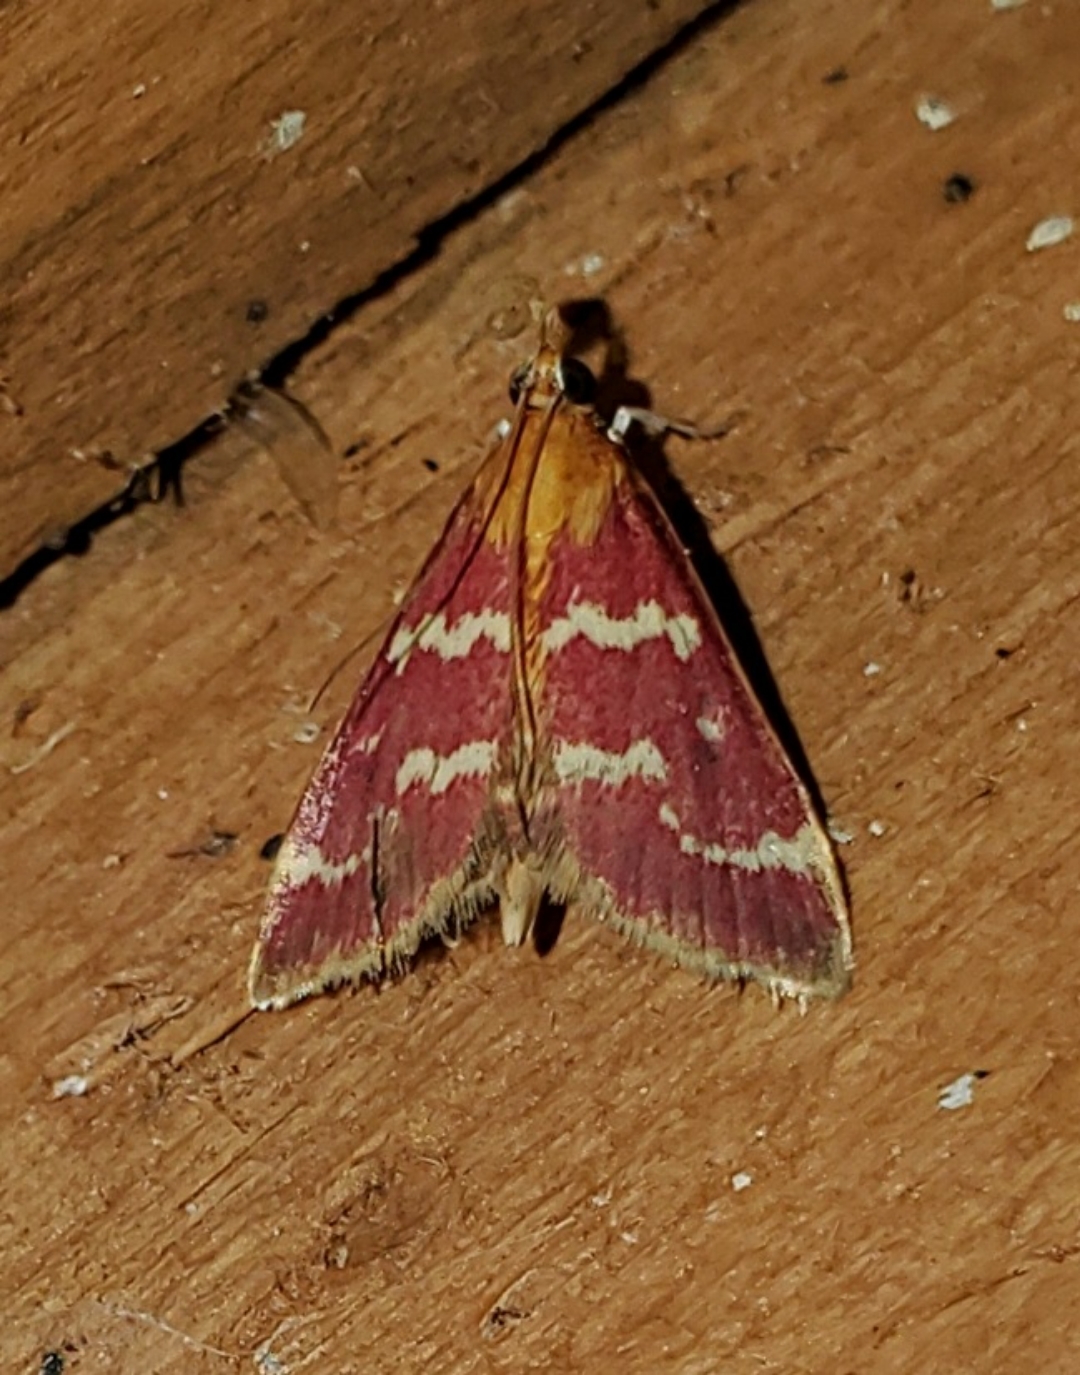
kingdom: Animalia
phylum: Arthropoda
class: Insecta
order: Lepidoptera
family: Crambidae
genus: Pyrausta
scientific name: Pyrausta signatalis
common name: Raspberry pyrausta moth
